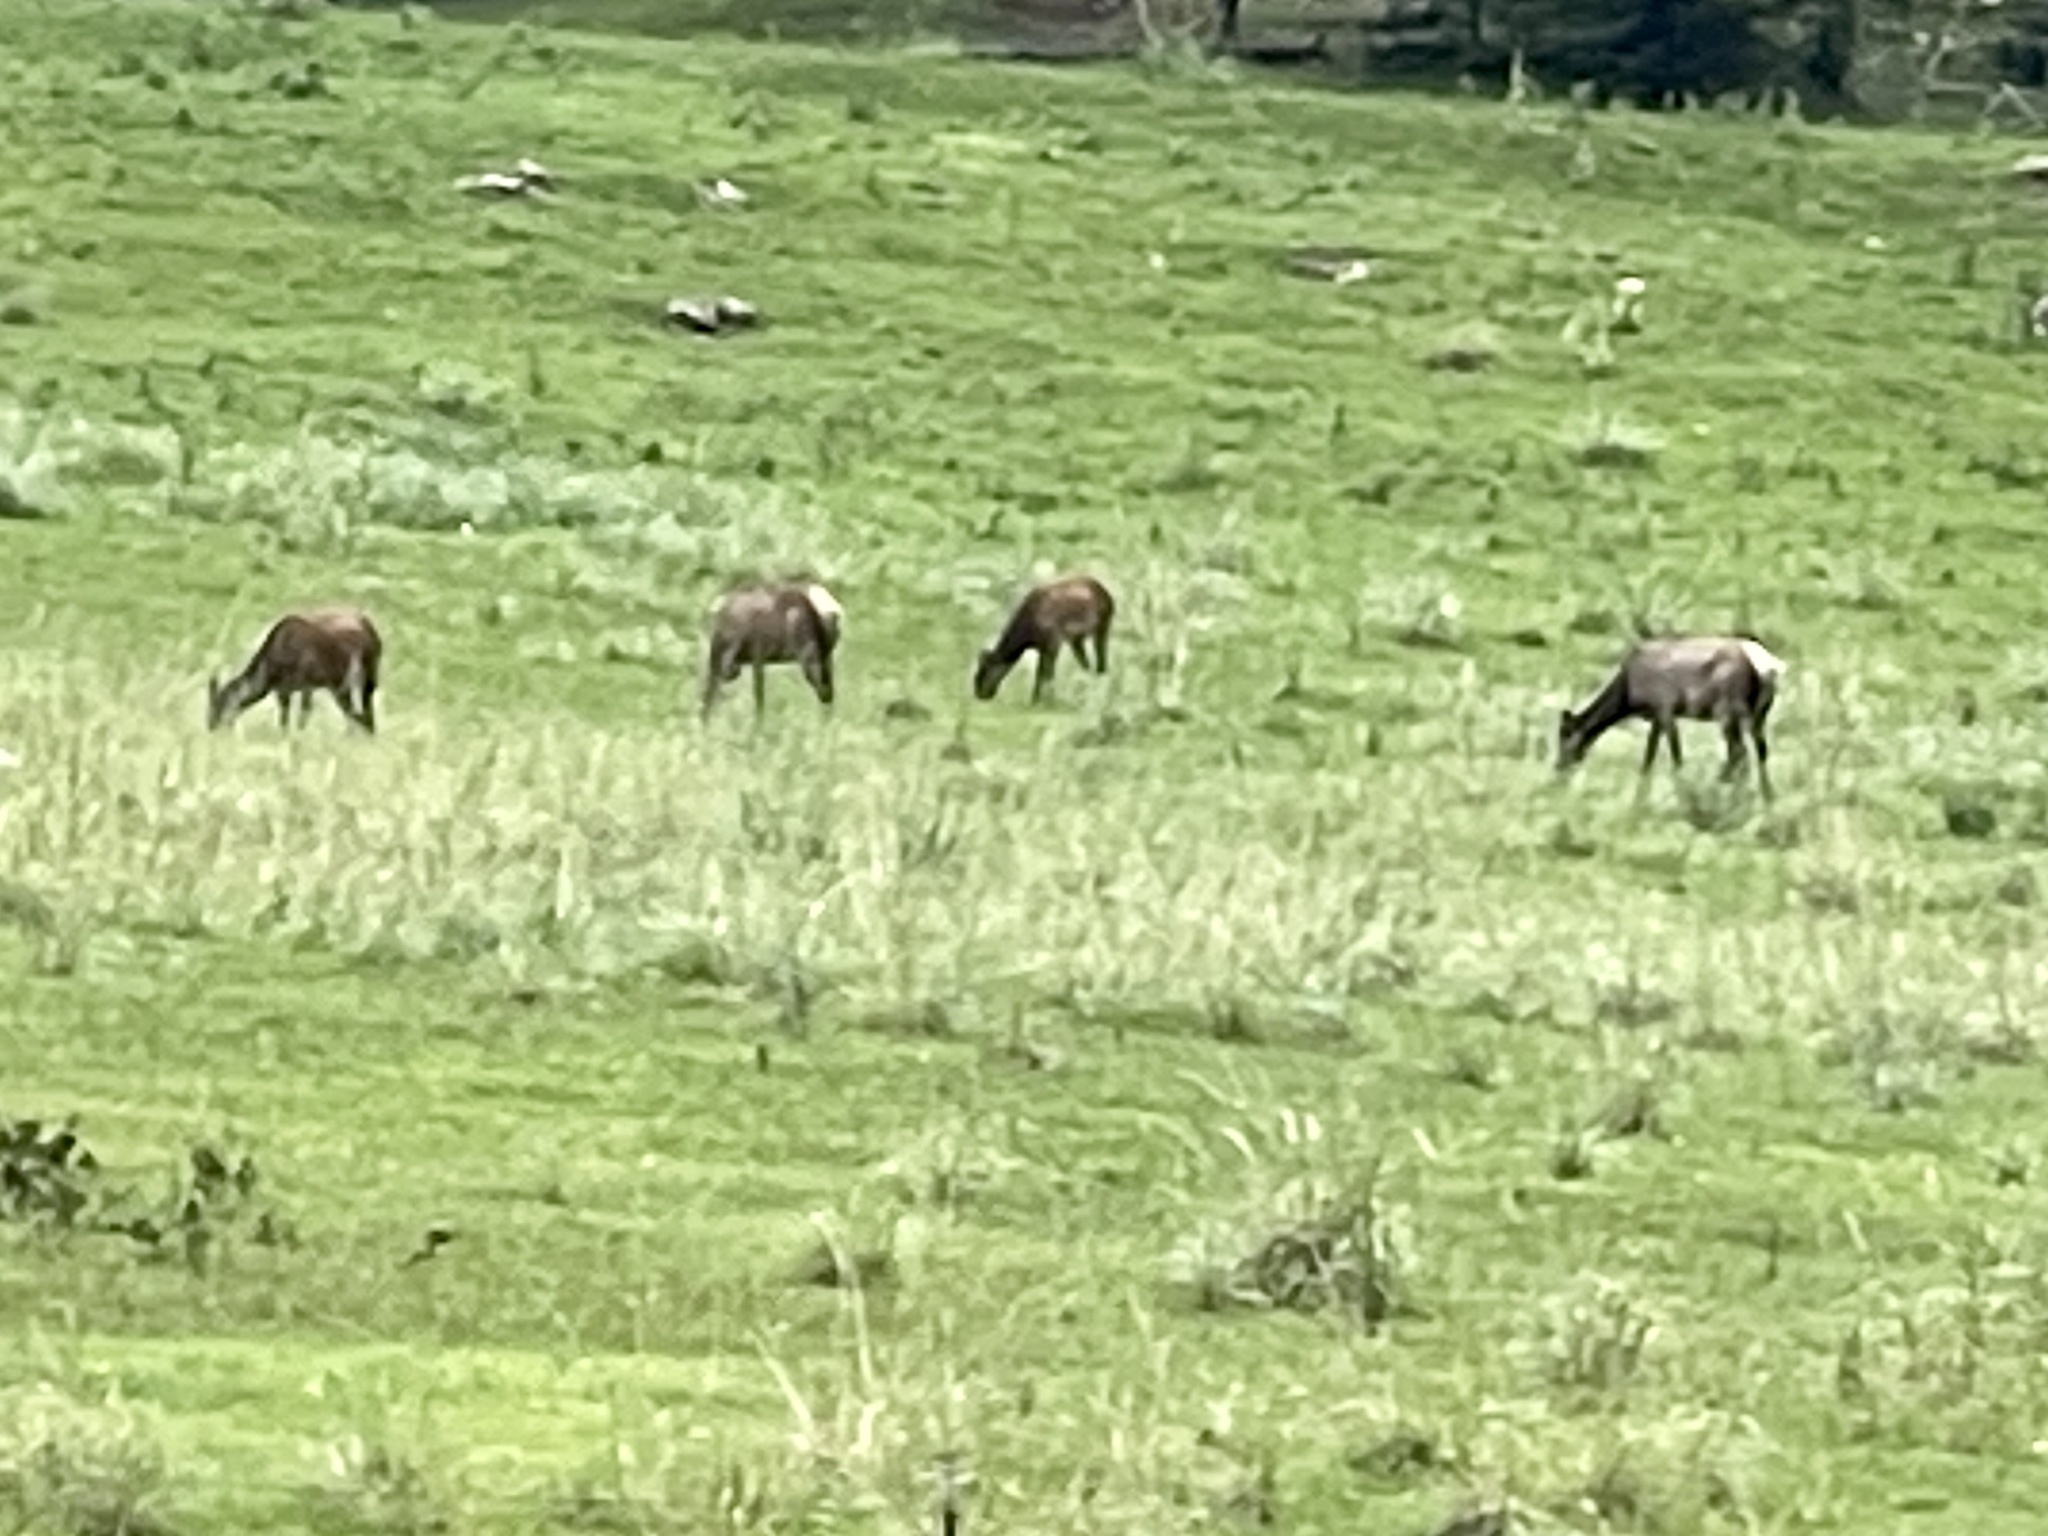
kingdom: Animalia
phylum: Chordata
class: Mammalia
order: Artiodactyla
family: Cervidae
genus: Cervus
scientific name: Cervus elaphus
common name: Red deer
